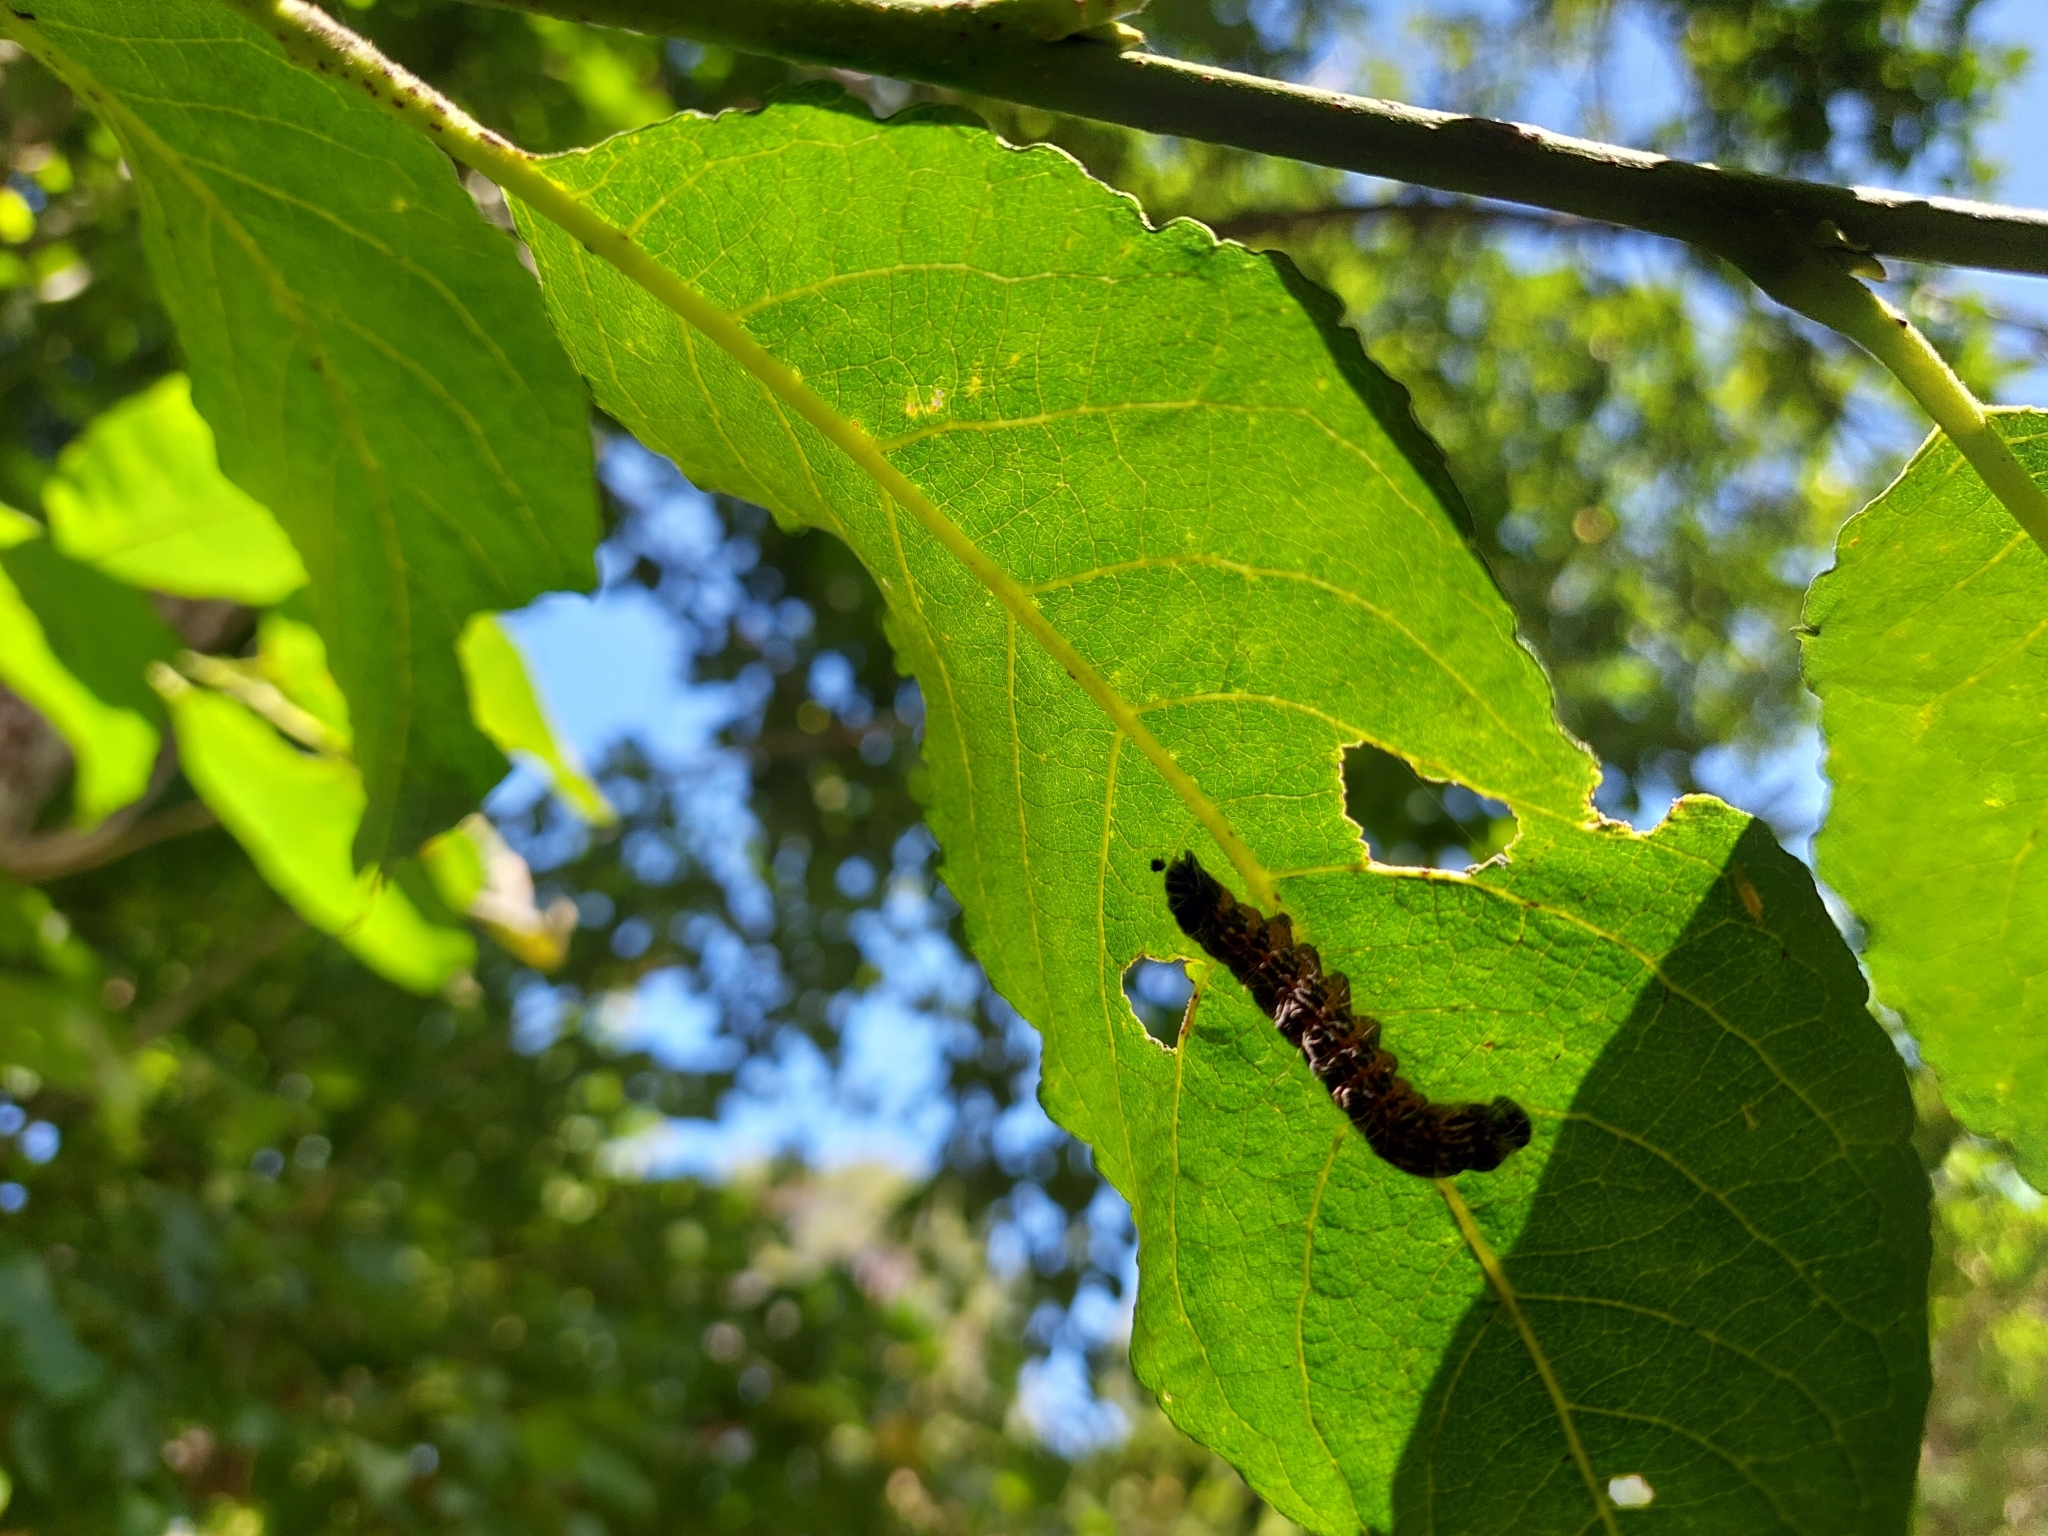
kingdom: Animalia
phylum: Arthropoda
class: Insecta
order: Lepidoptera
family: Notodontidae
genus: Phalera
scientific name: Phalera bucephala
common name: Buff-tip
